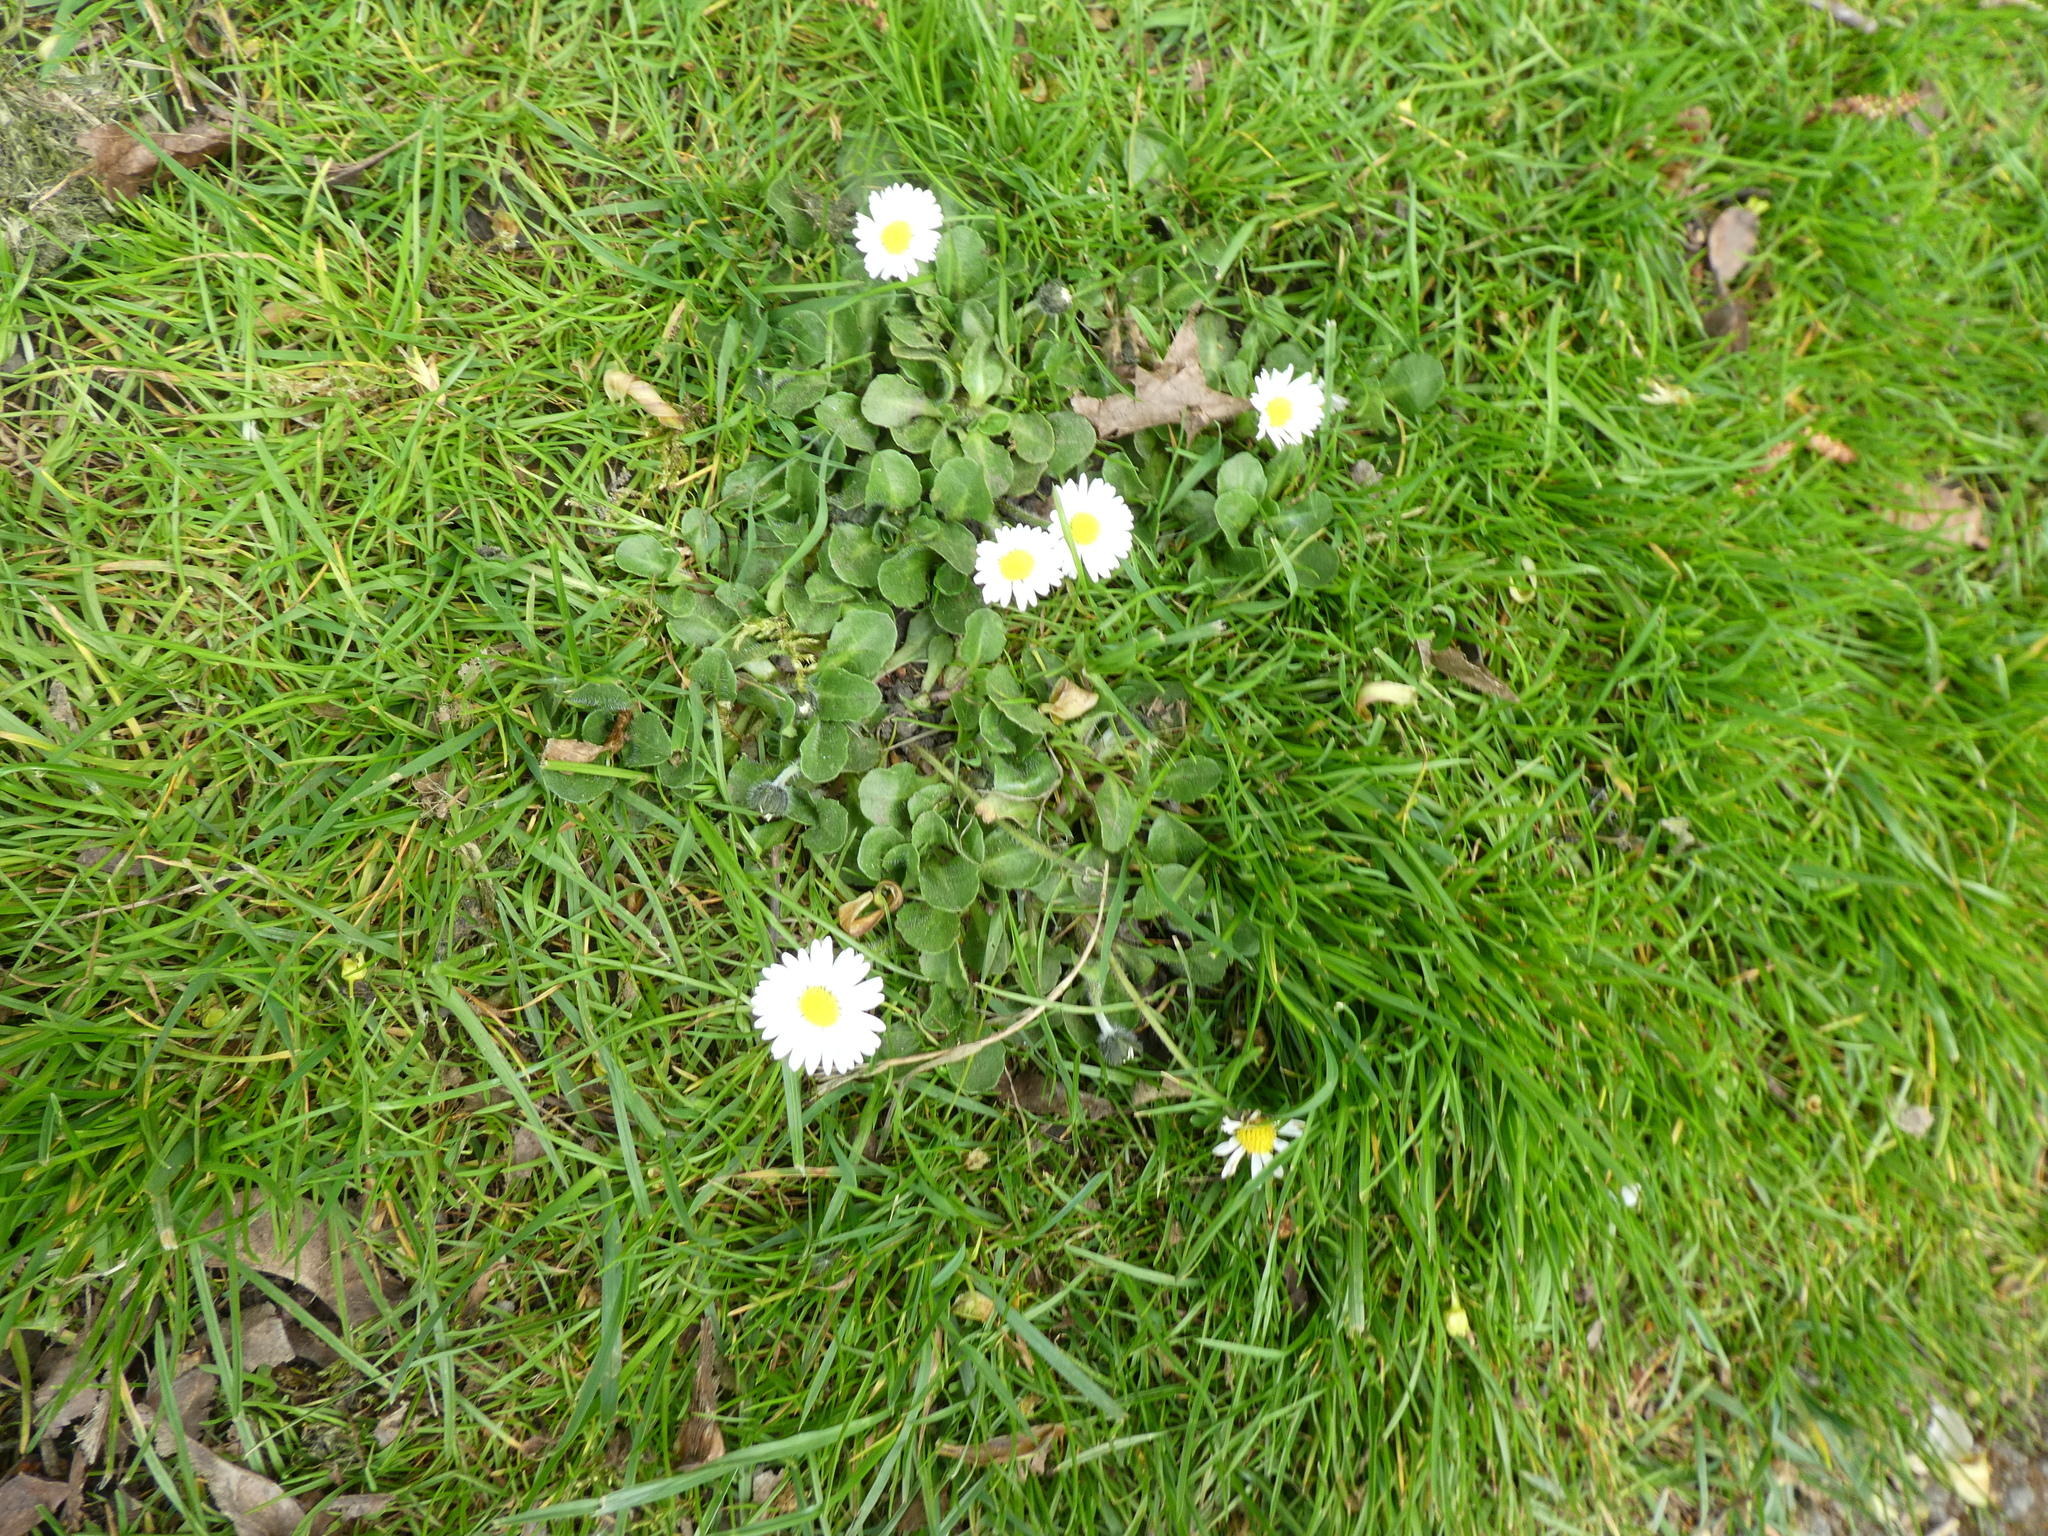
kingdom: Plantae
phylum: Tracheophyta
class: Magnoliopsida
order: Asterales
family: Asteraceae
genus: Bellis
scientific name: Bellis perennis
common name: Lawndaisy
